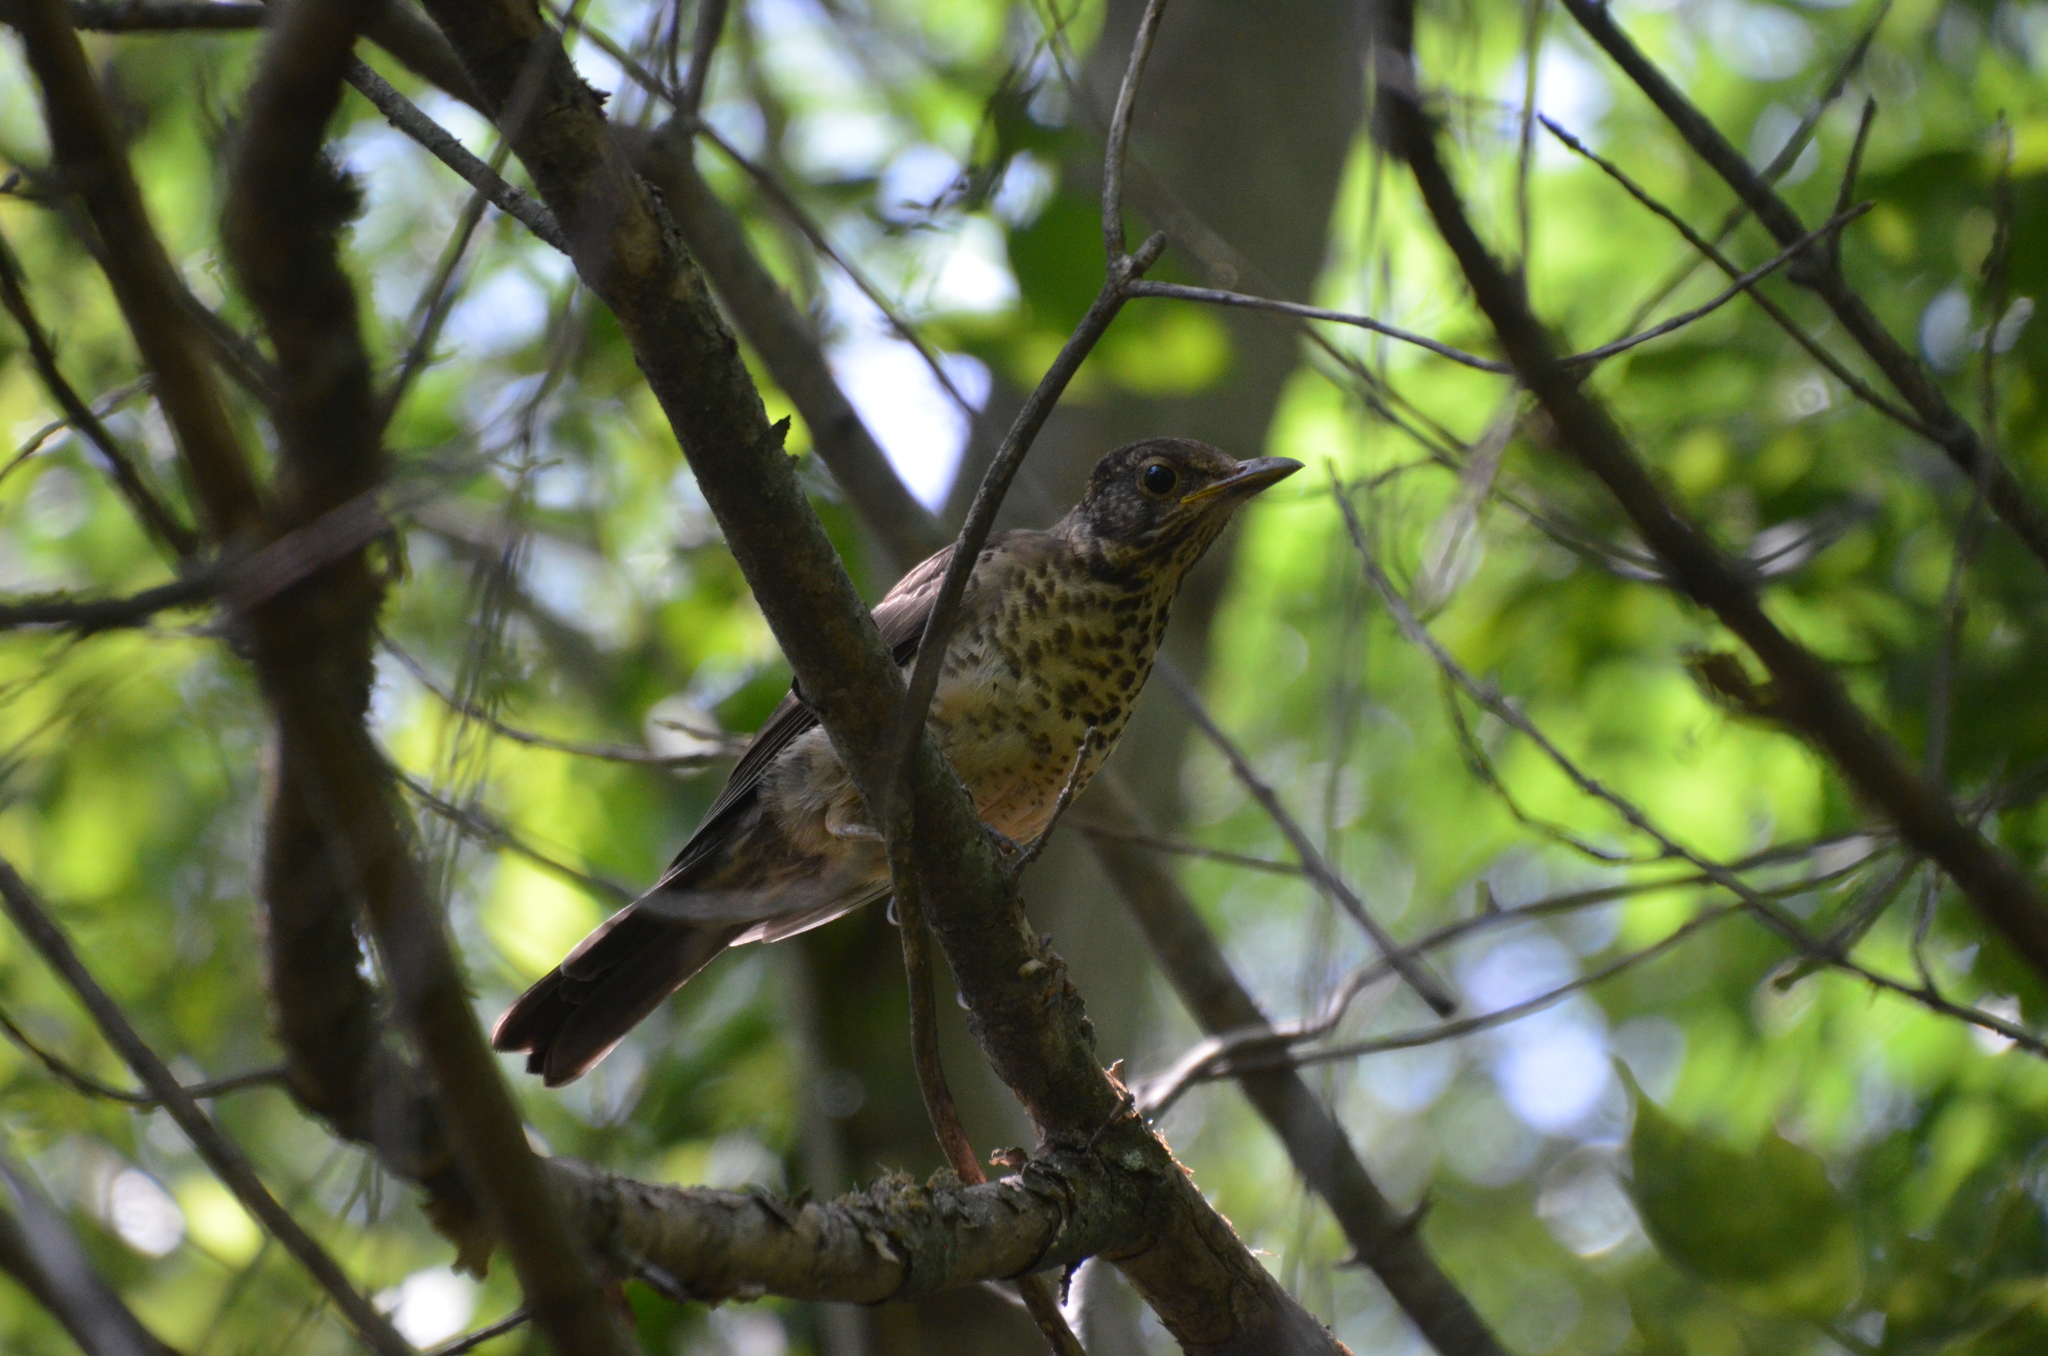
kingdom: Animalia
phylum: Chordata
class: Aves
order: Passeriformes
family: Turdidae
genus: Turdus
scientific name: Turdus falcklandii
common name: Austral thrush
